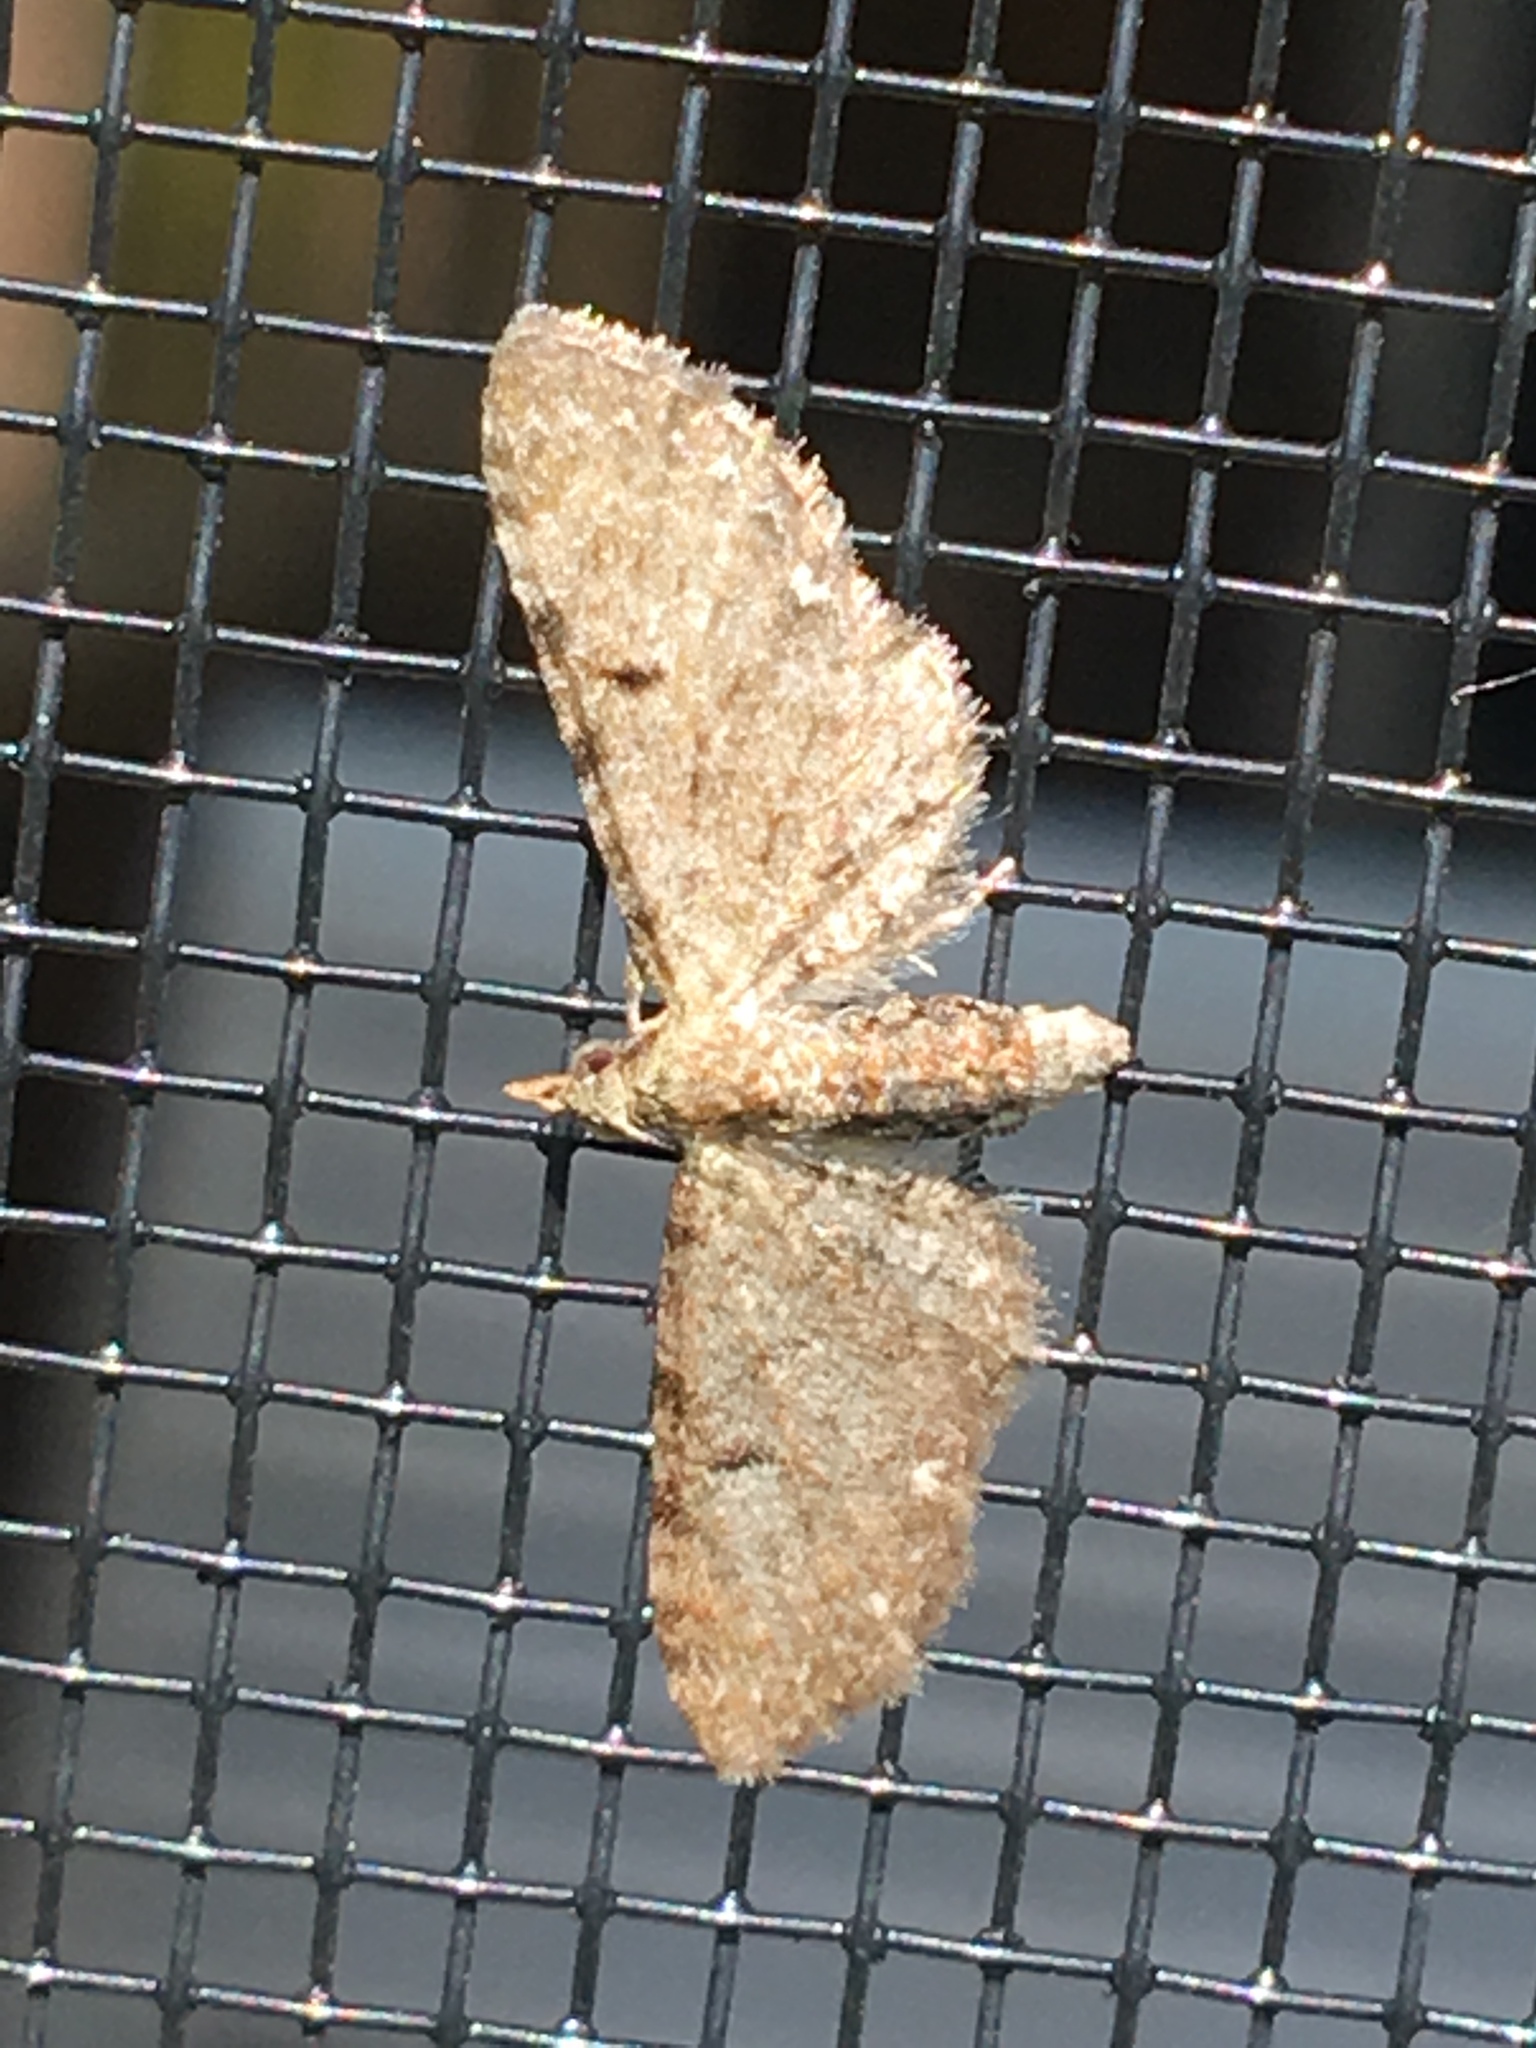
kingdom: Animalia
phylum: Arthropoda
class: Insecta
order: Lepidoptera
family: Geometridae
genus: Eupithecia
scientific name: Eupithecia miserulata
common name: Common eupithecia
